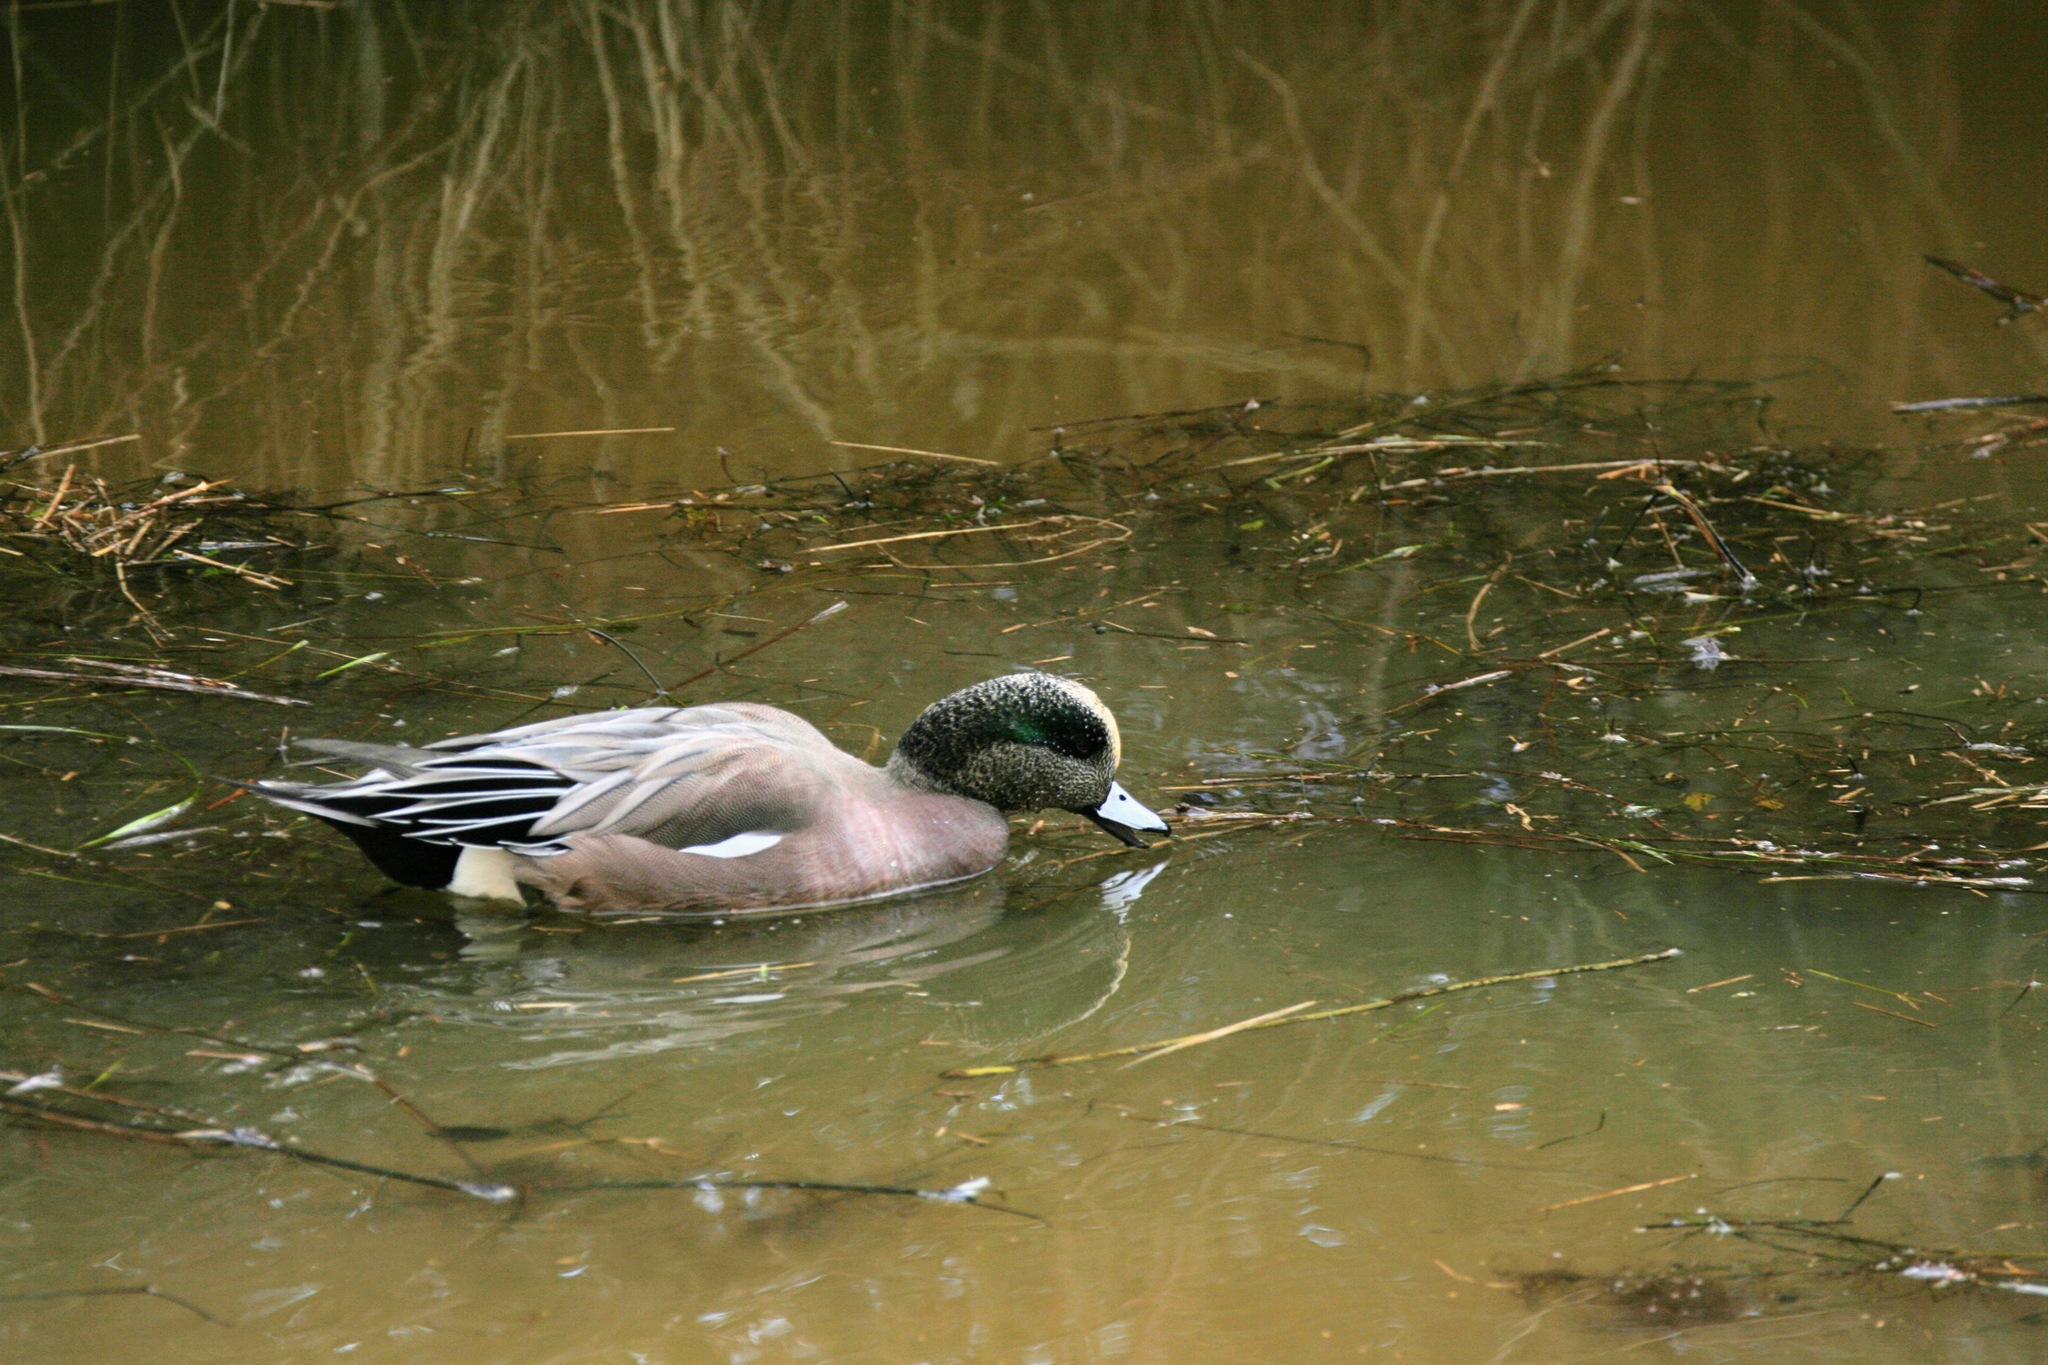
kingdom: Animalia
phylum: Chordata
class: Aves
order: Anseriformes
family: Anatidae
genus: Mareca
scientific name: Mareca americana
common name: American wigeon
